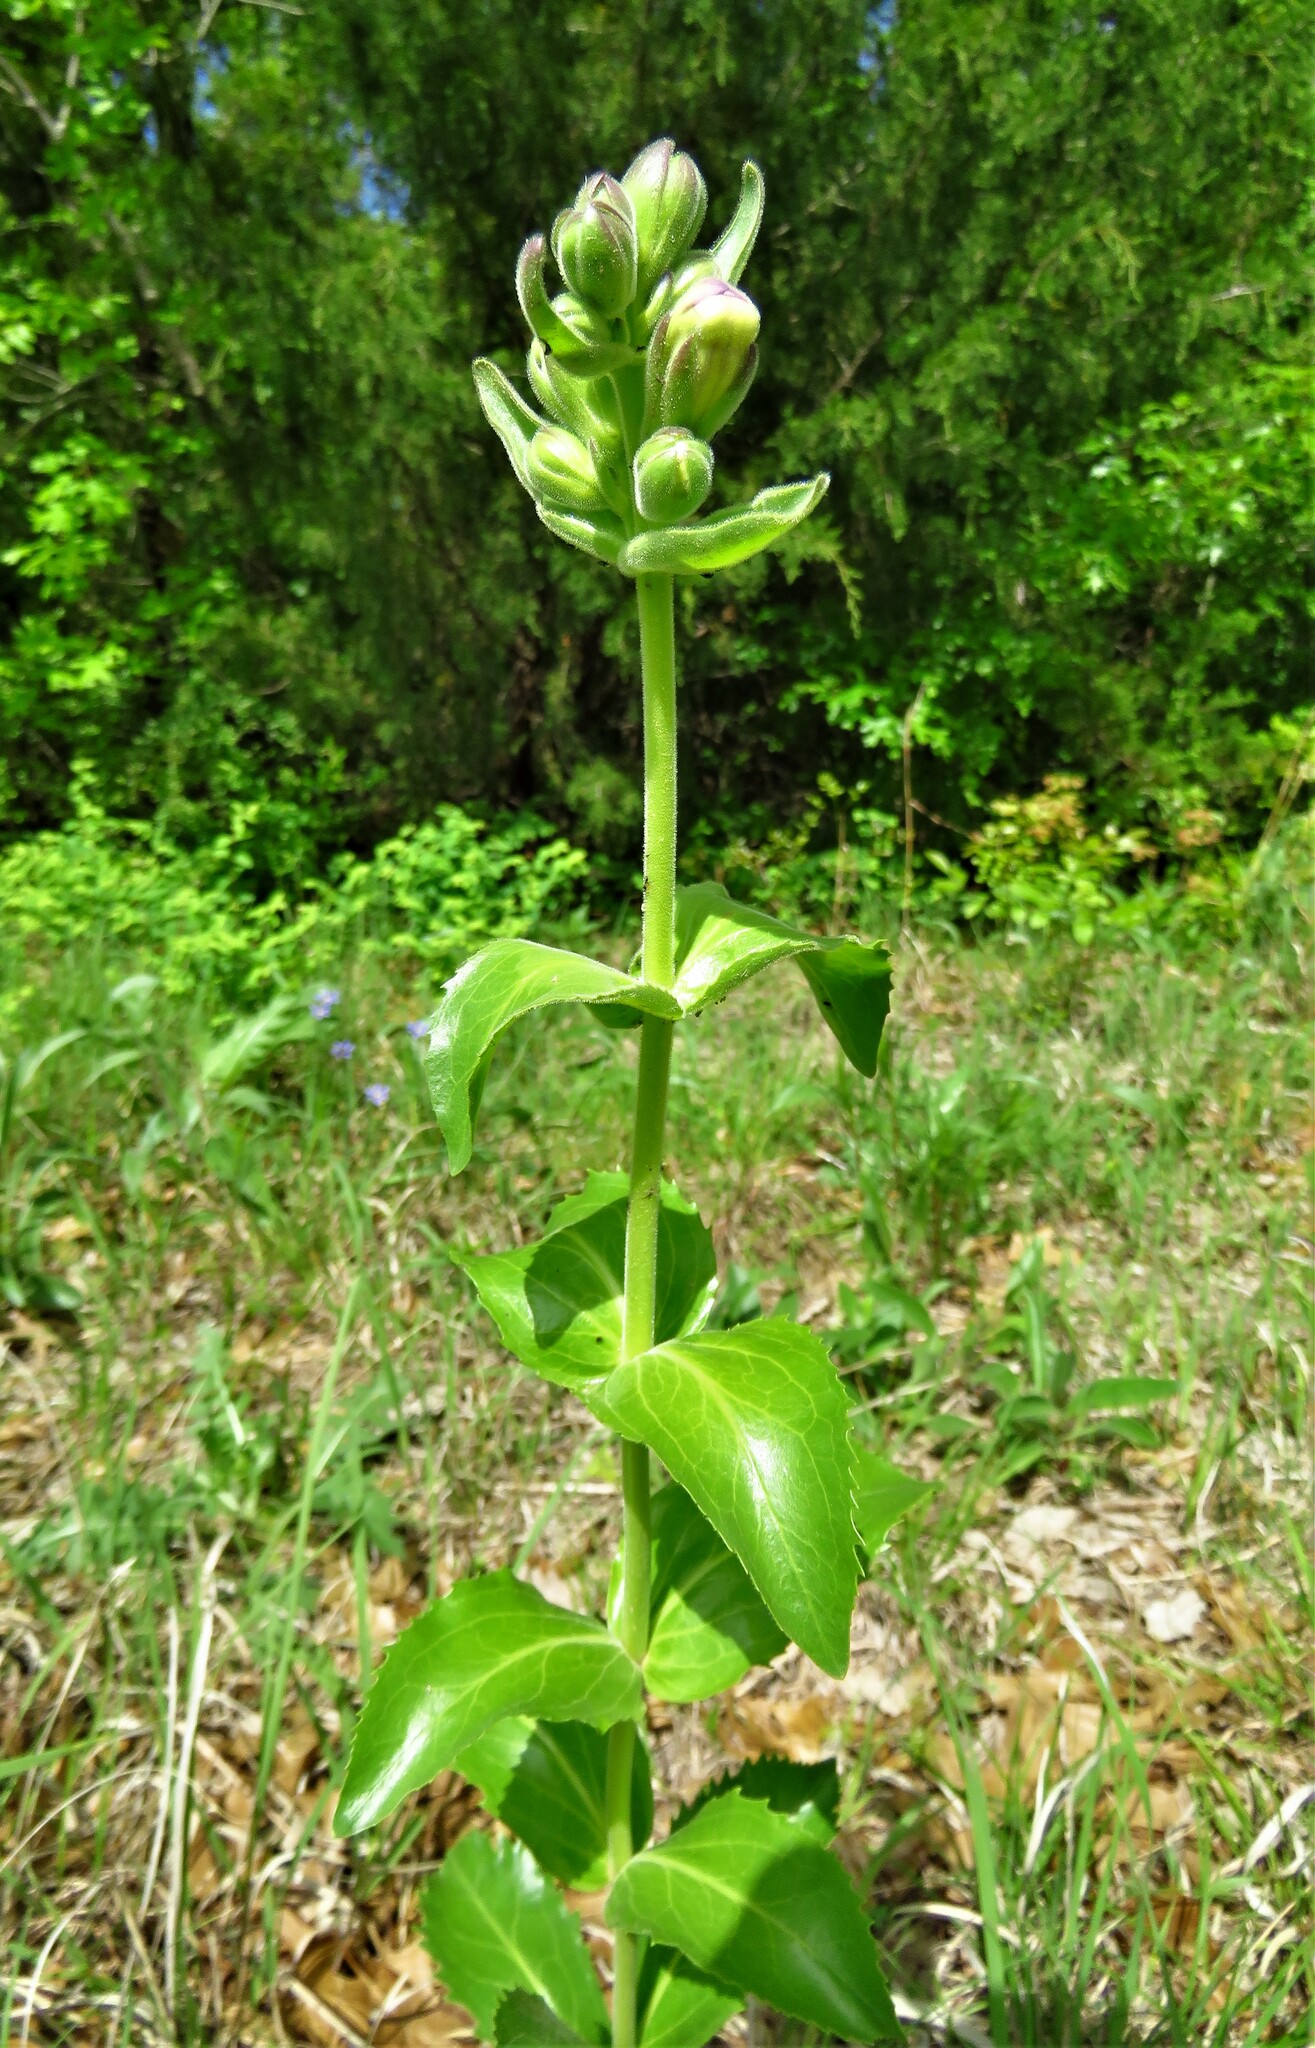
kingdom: Plantae
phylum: Tracheophyta
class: Magnoliopsida
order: Lamiales
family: Plantaginaceae
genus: Penstemon
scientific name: Penstemon cobaea
